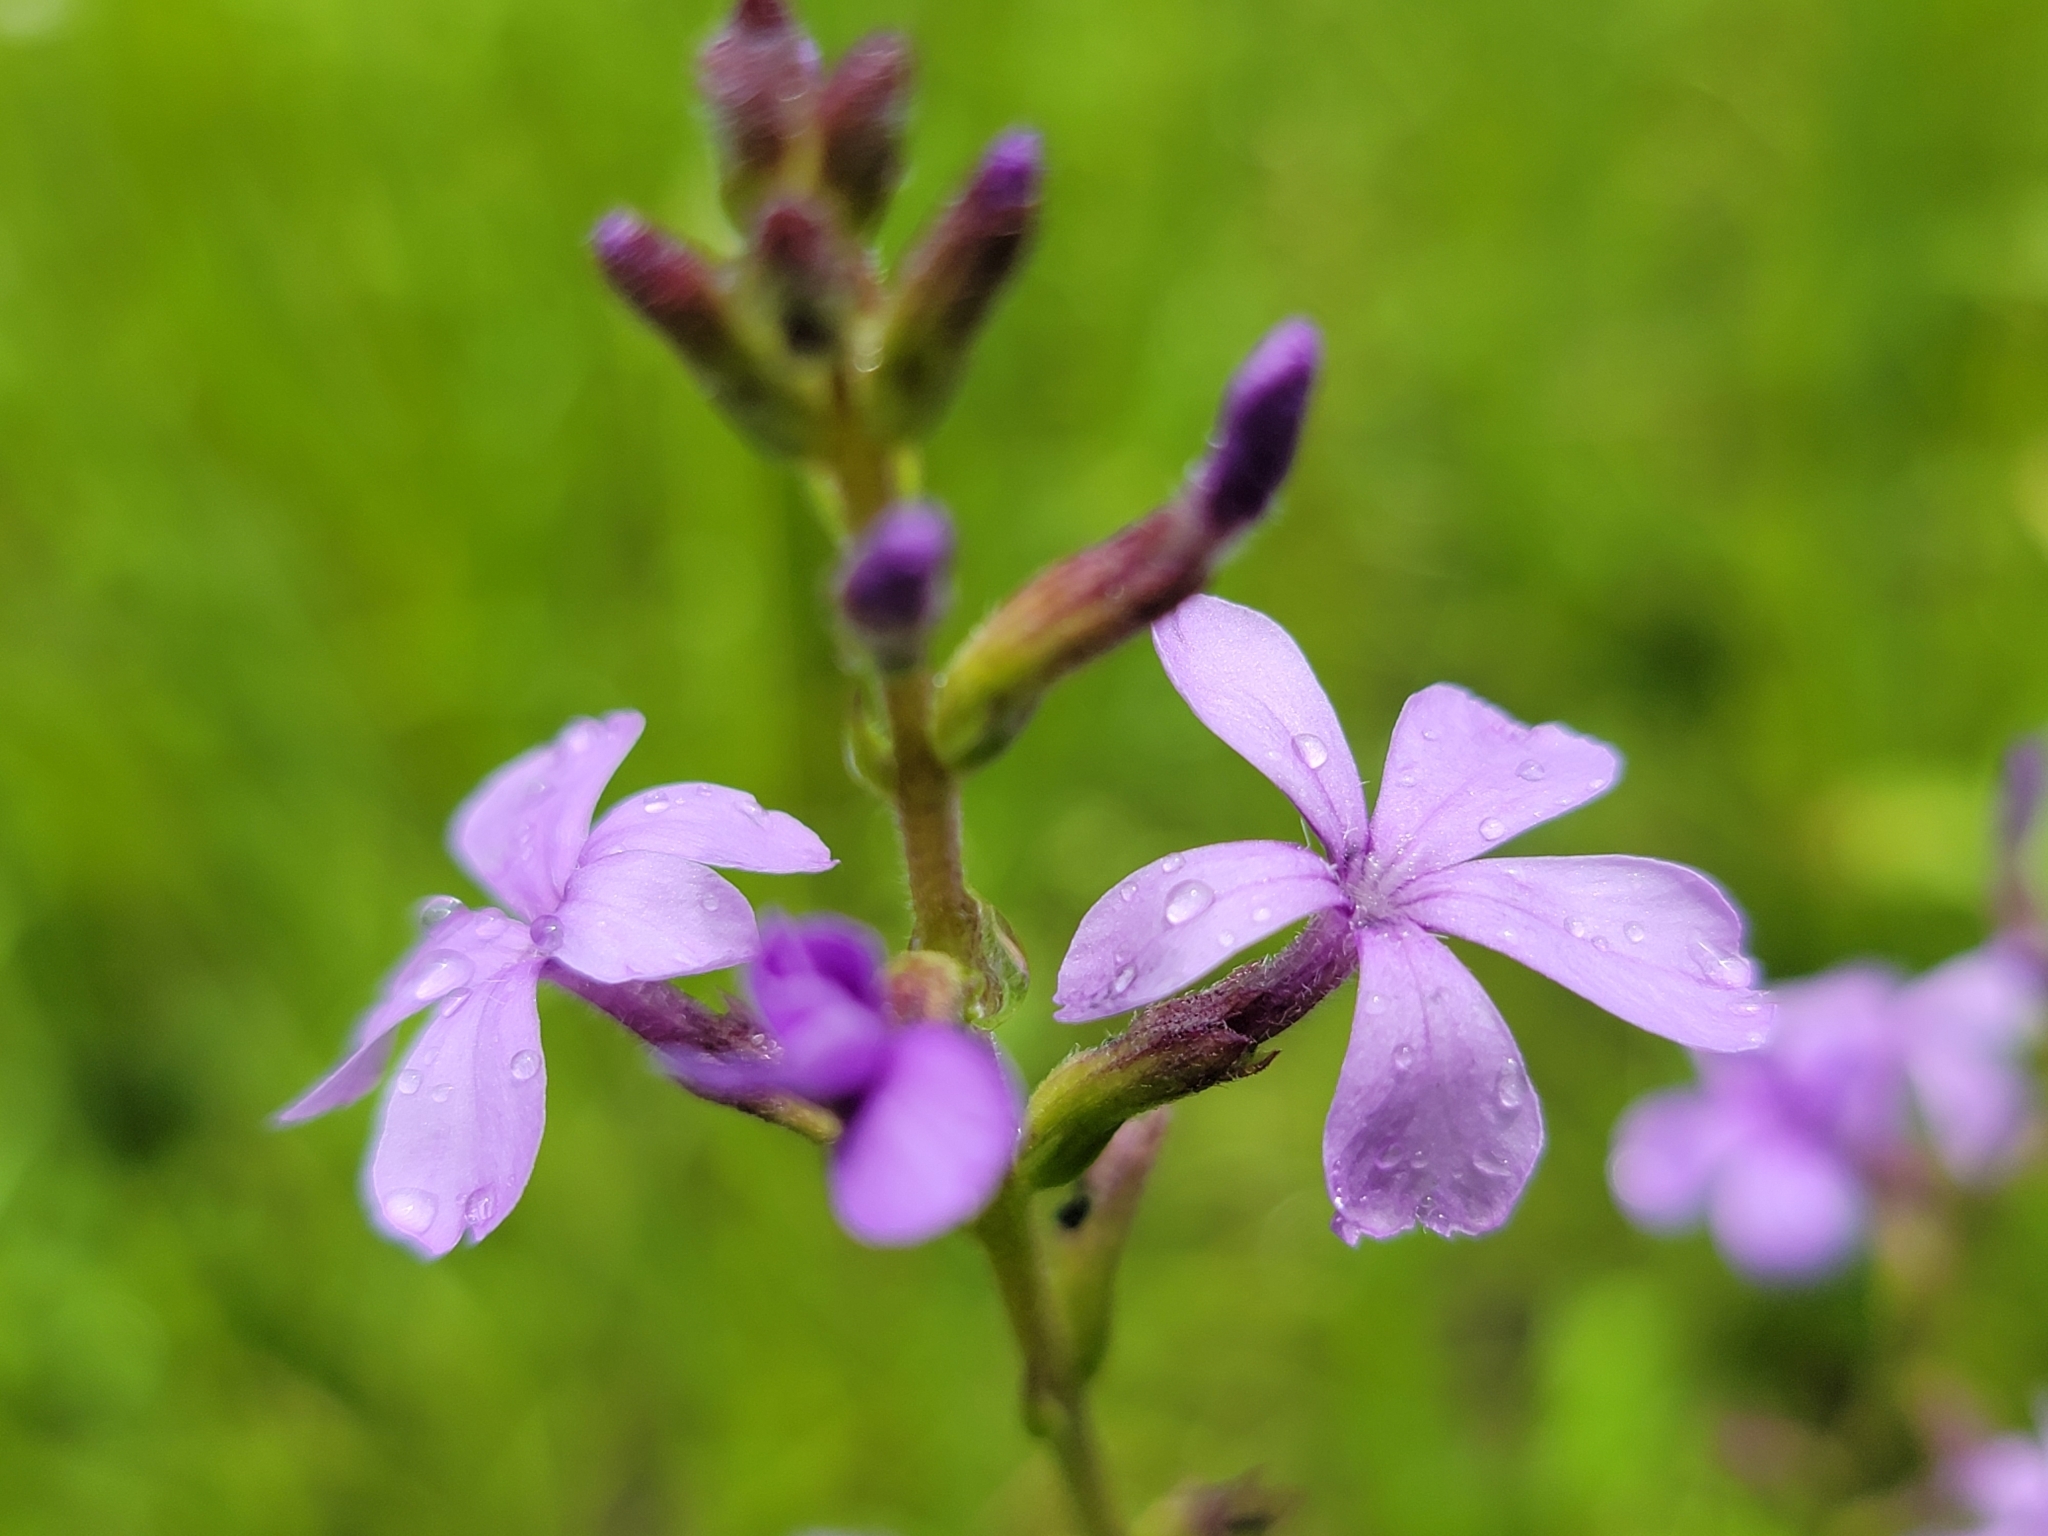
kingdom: Plantae
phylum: Tracheophyta
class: Magnoliopsida
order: Lamiales
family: Orobanchaceae
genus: Buchnera
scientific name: Buchnera americana
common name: American bluehearts
